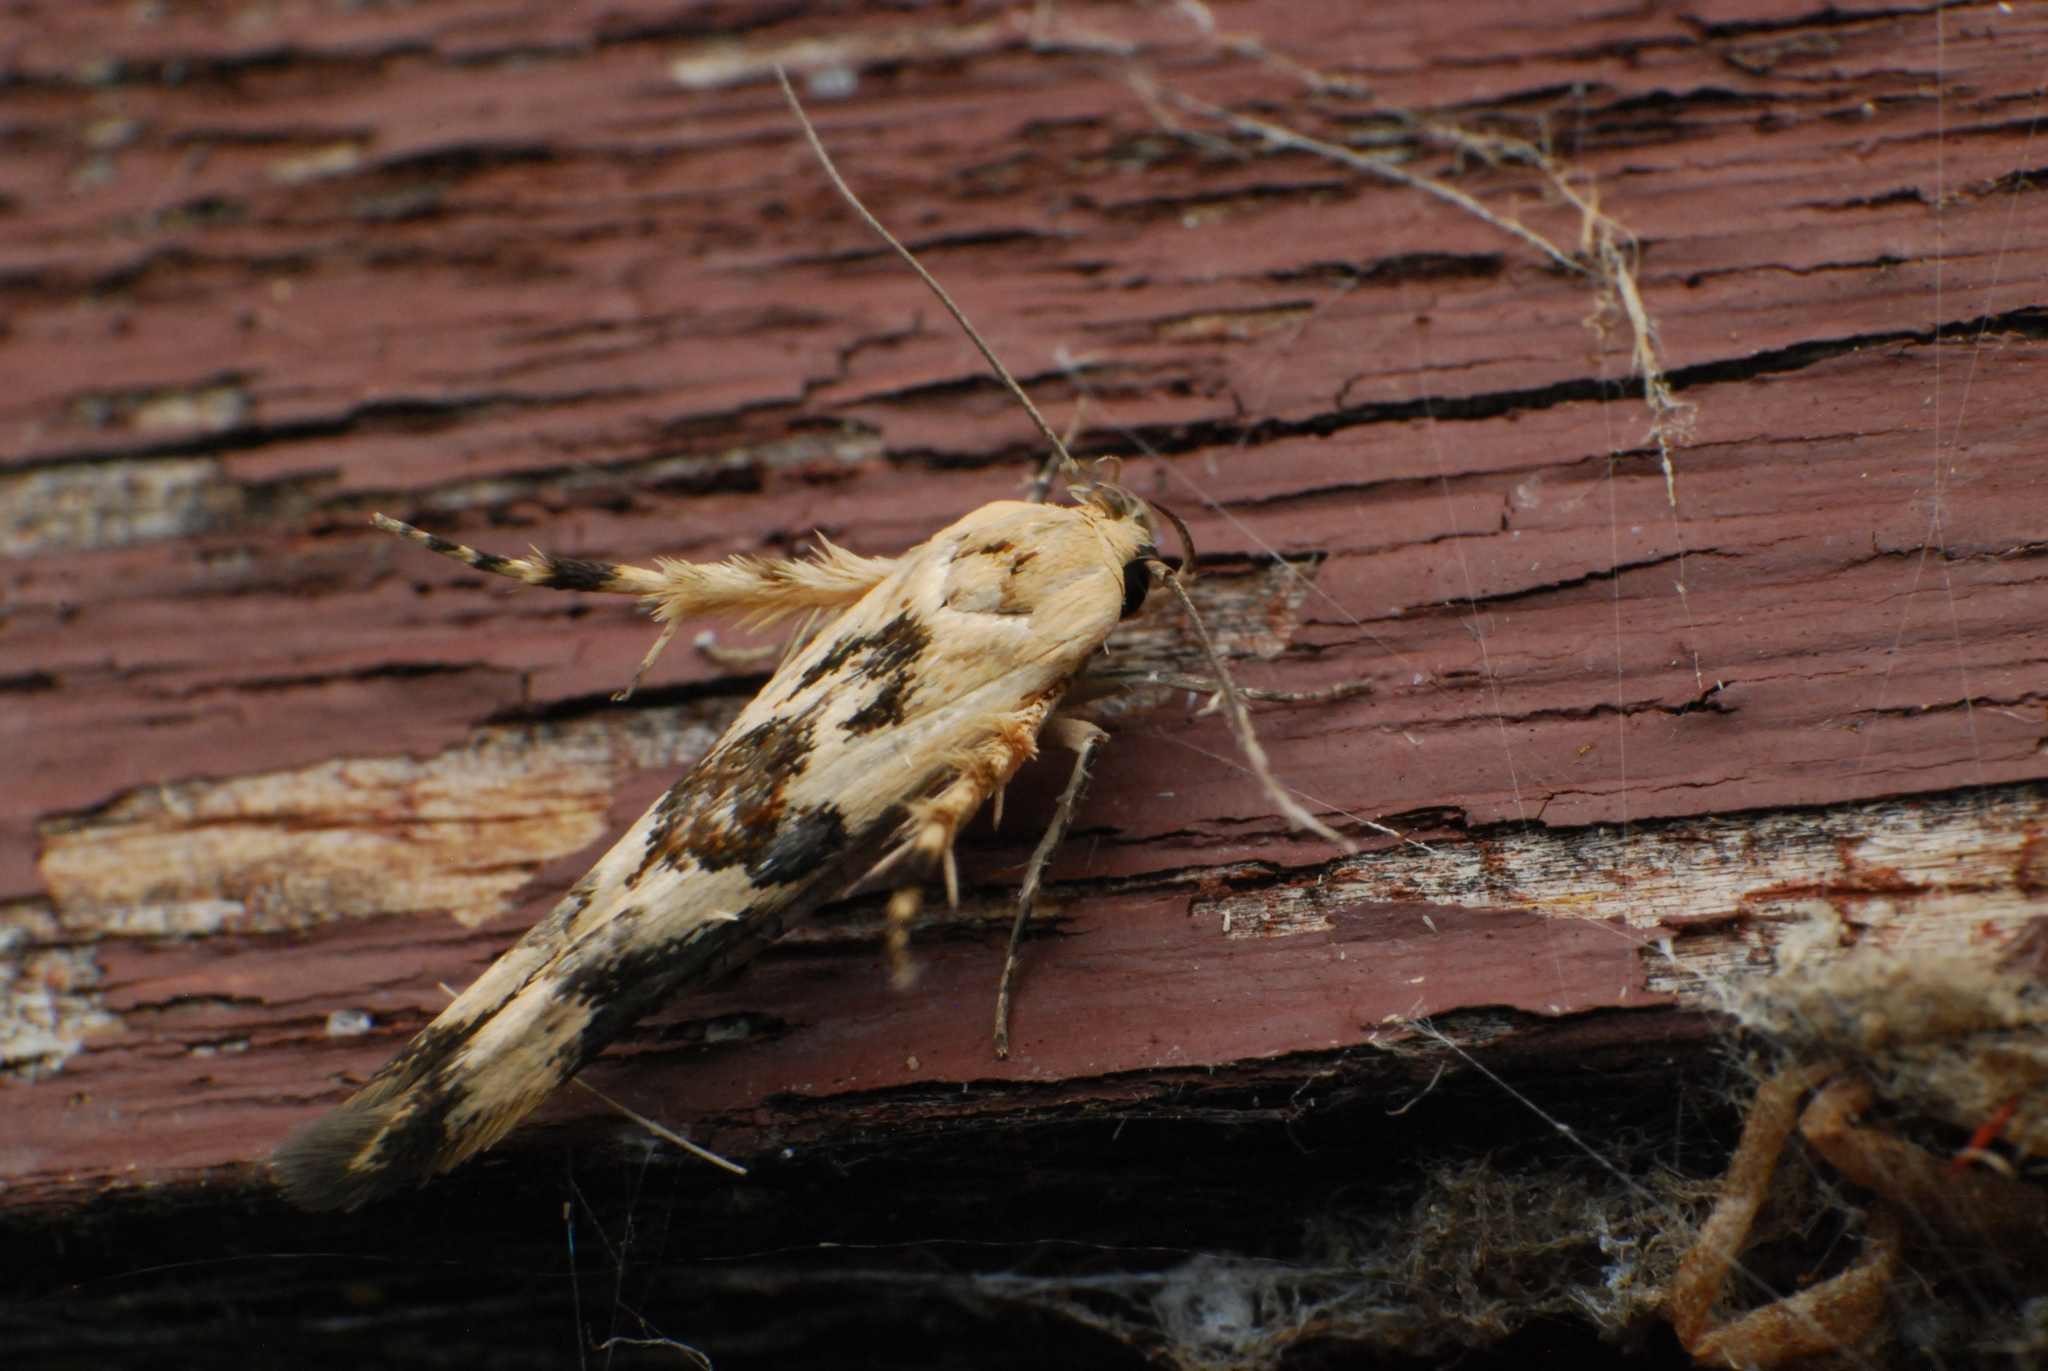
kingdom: Animalia
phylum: Arthropoda
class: Insecta
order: Lepidoptera
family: Stathmopodidae
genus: Stathmopoda
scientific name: Stathmopoda melanochra
